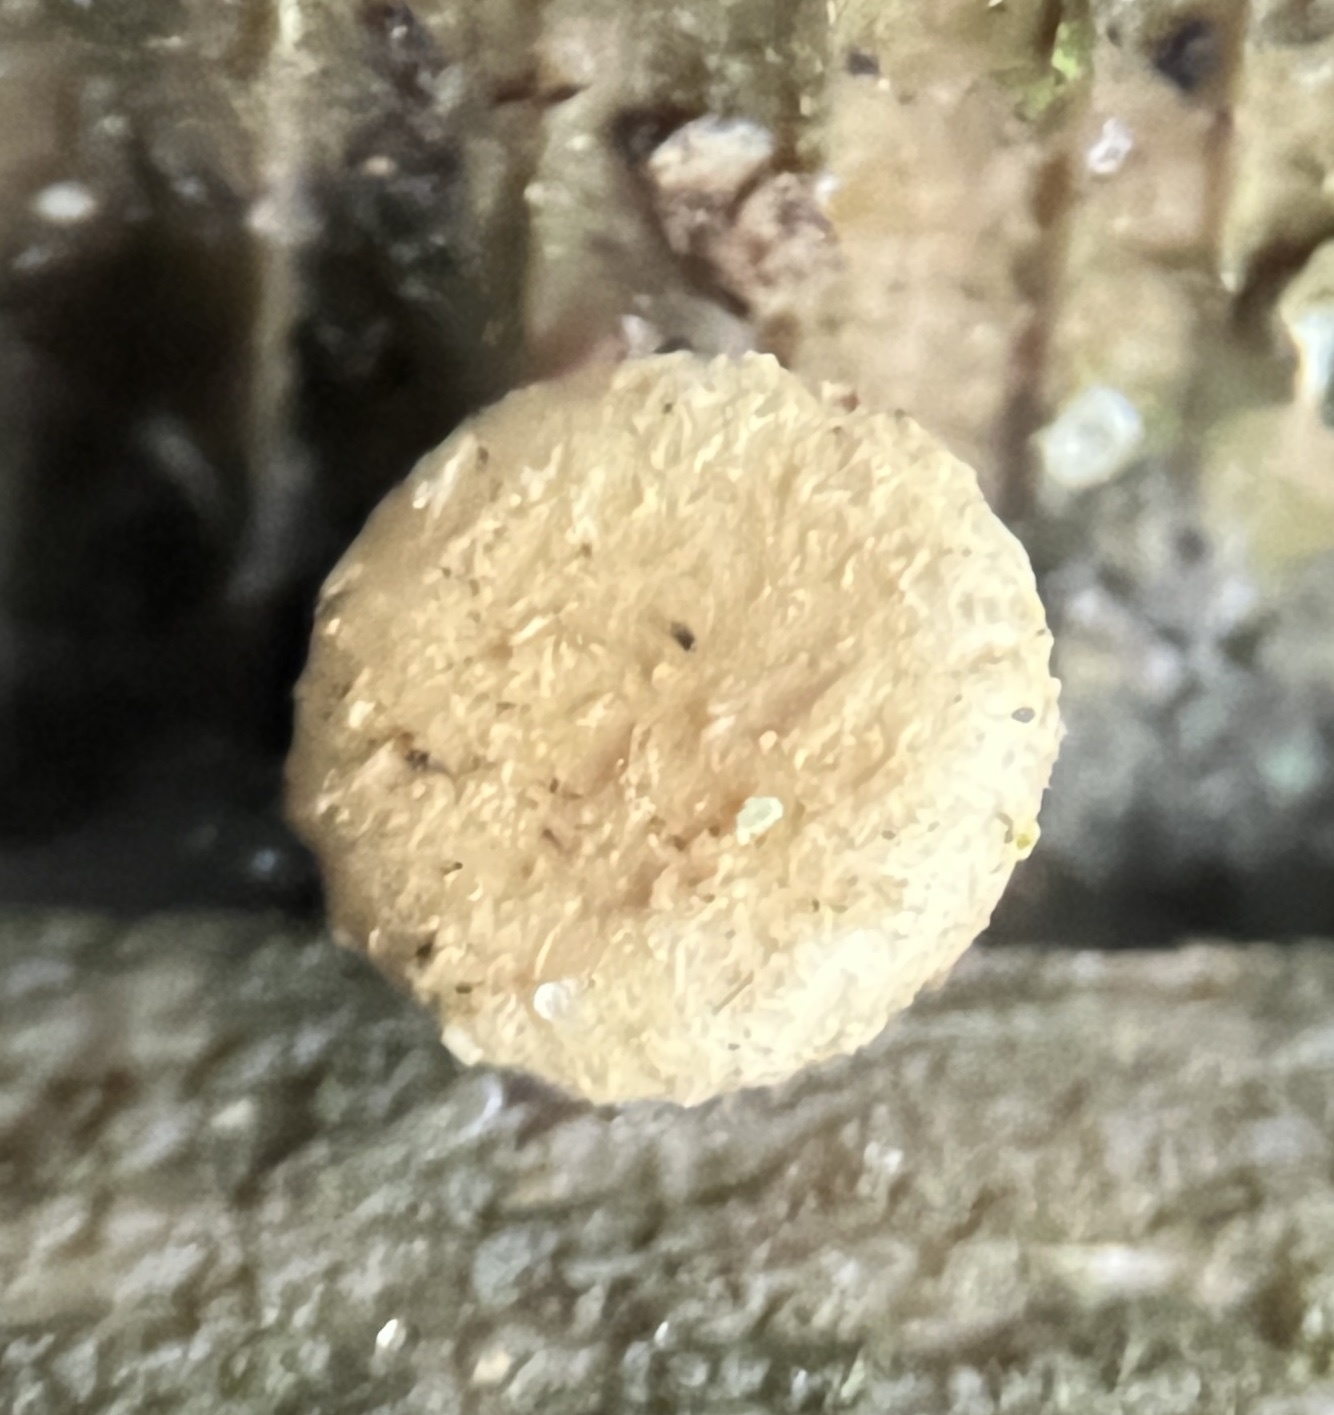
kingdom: Fungi
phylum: Basidiomycota
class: Agaricomycetes
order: Agaricales
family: Nidulariaceae
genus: Crucibulum
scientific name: Crucibulum laeve
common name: Common bird's nest
